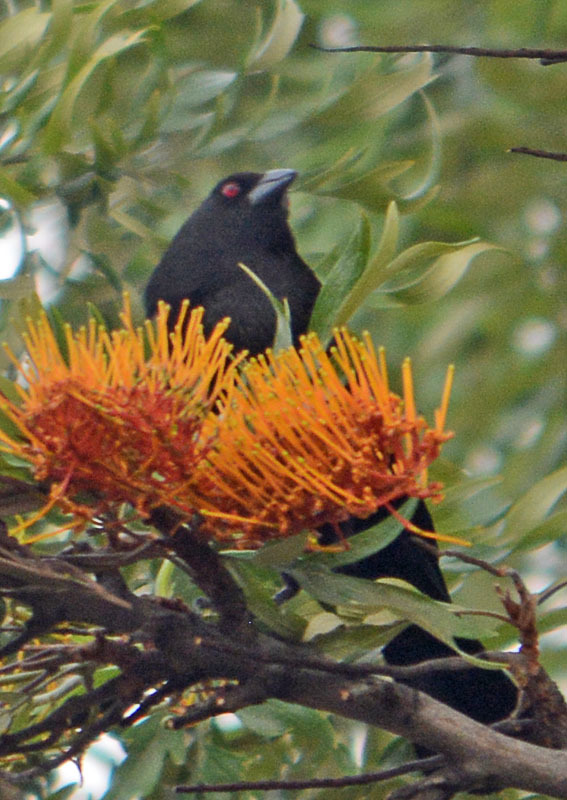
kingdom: Animalia
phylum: Chordata
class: Aves
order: Passeriformes
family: Icteridae
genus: Molothrus
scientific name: Molothrus aeneus
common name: Bronzed cowbird
